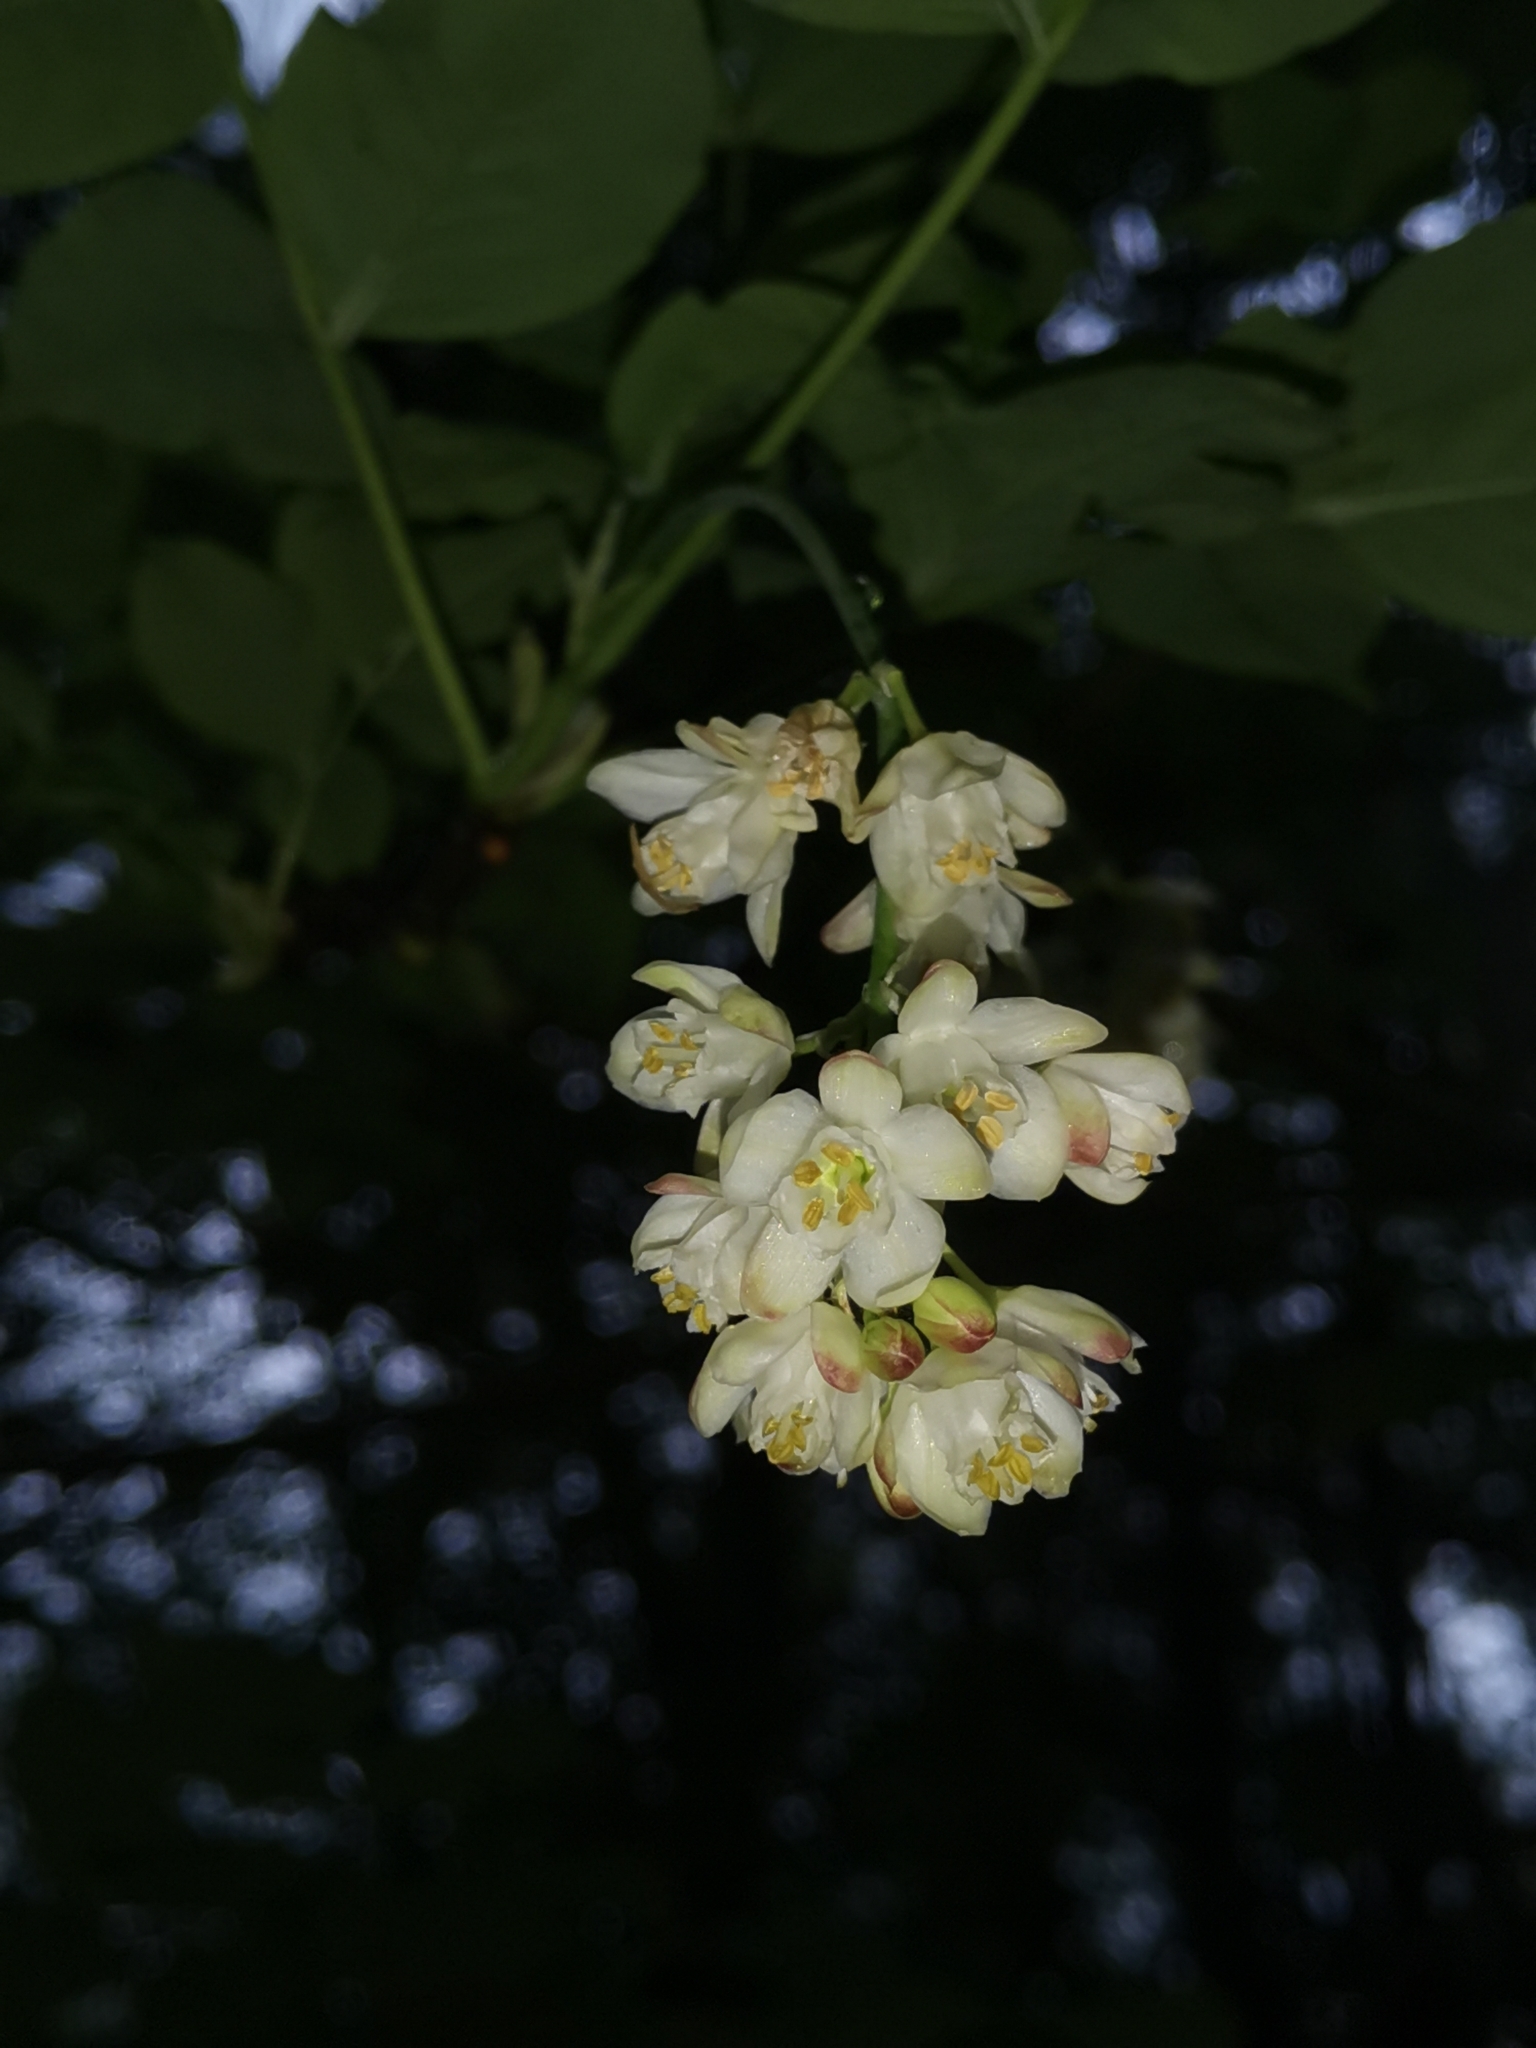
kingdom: Plantae
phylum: Tracheophyta
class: Magnoliopsida
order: Crossosomatales
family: Staphyleaceae
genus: Staphylea
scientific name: Staphylea pinnata
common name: Bladdernut
